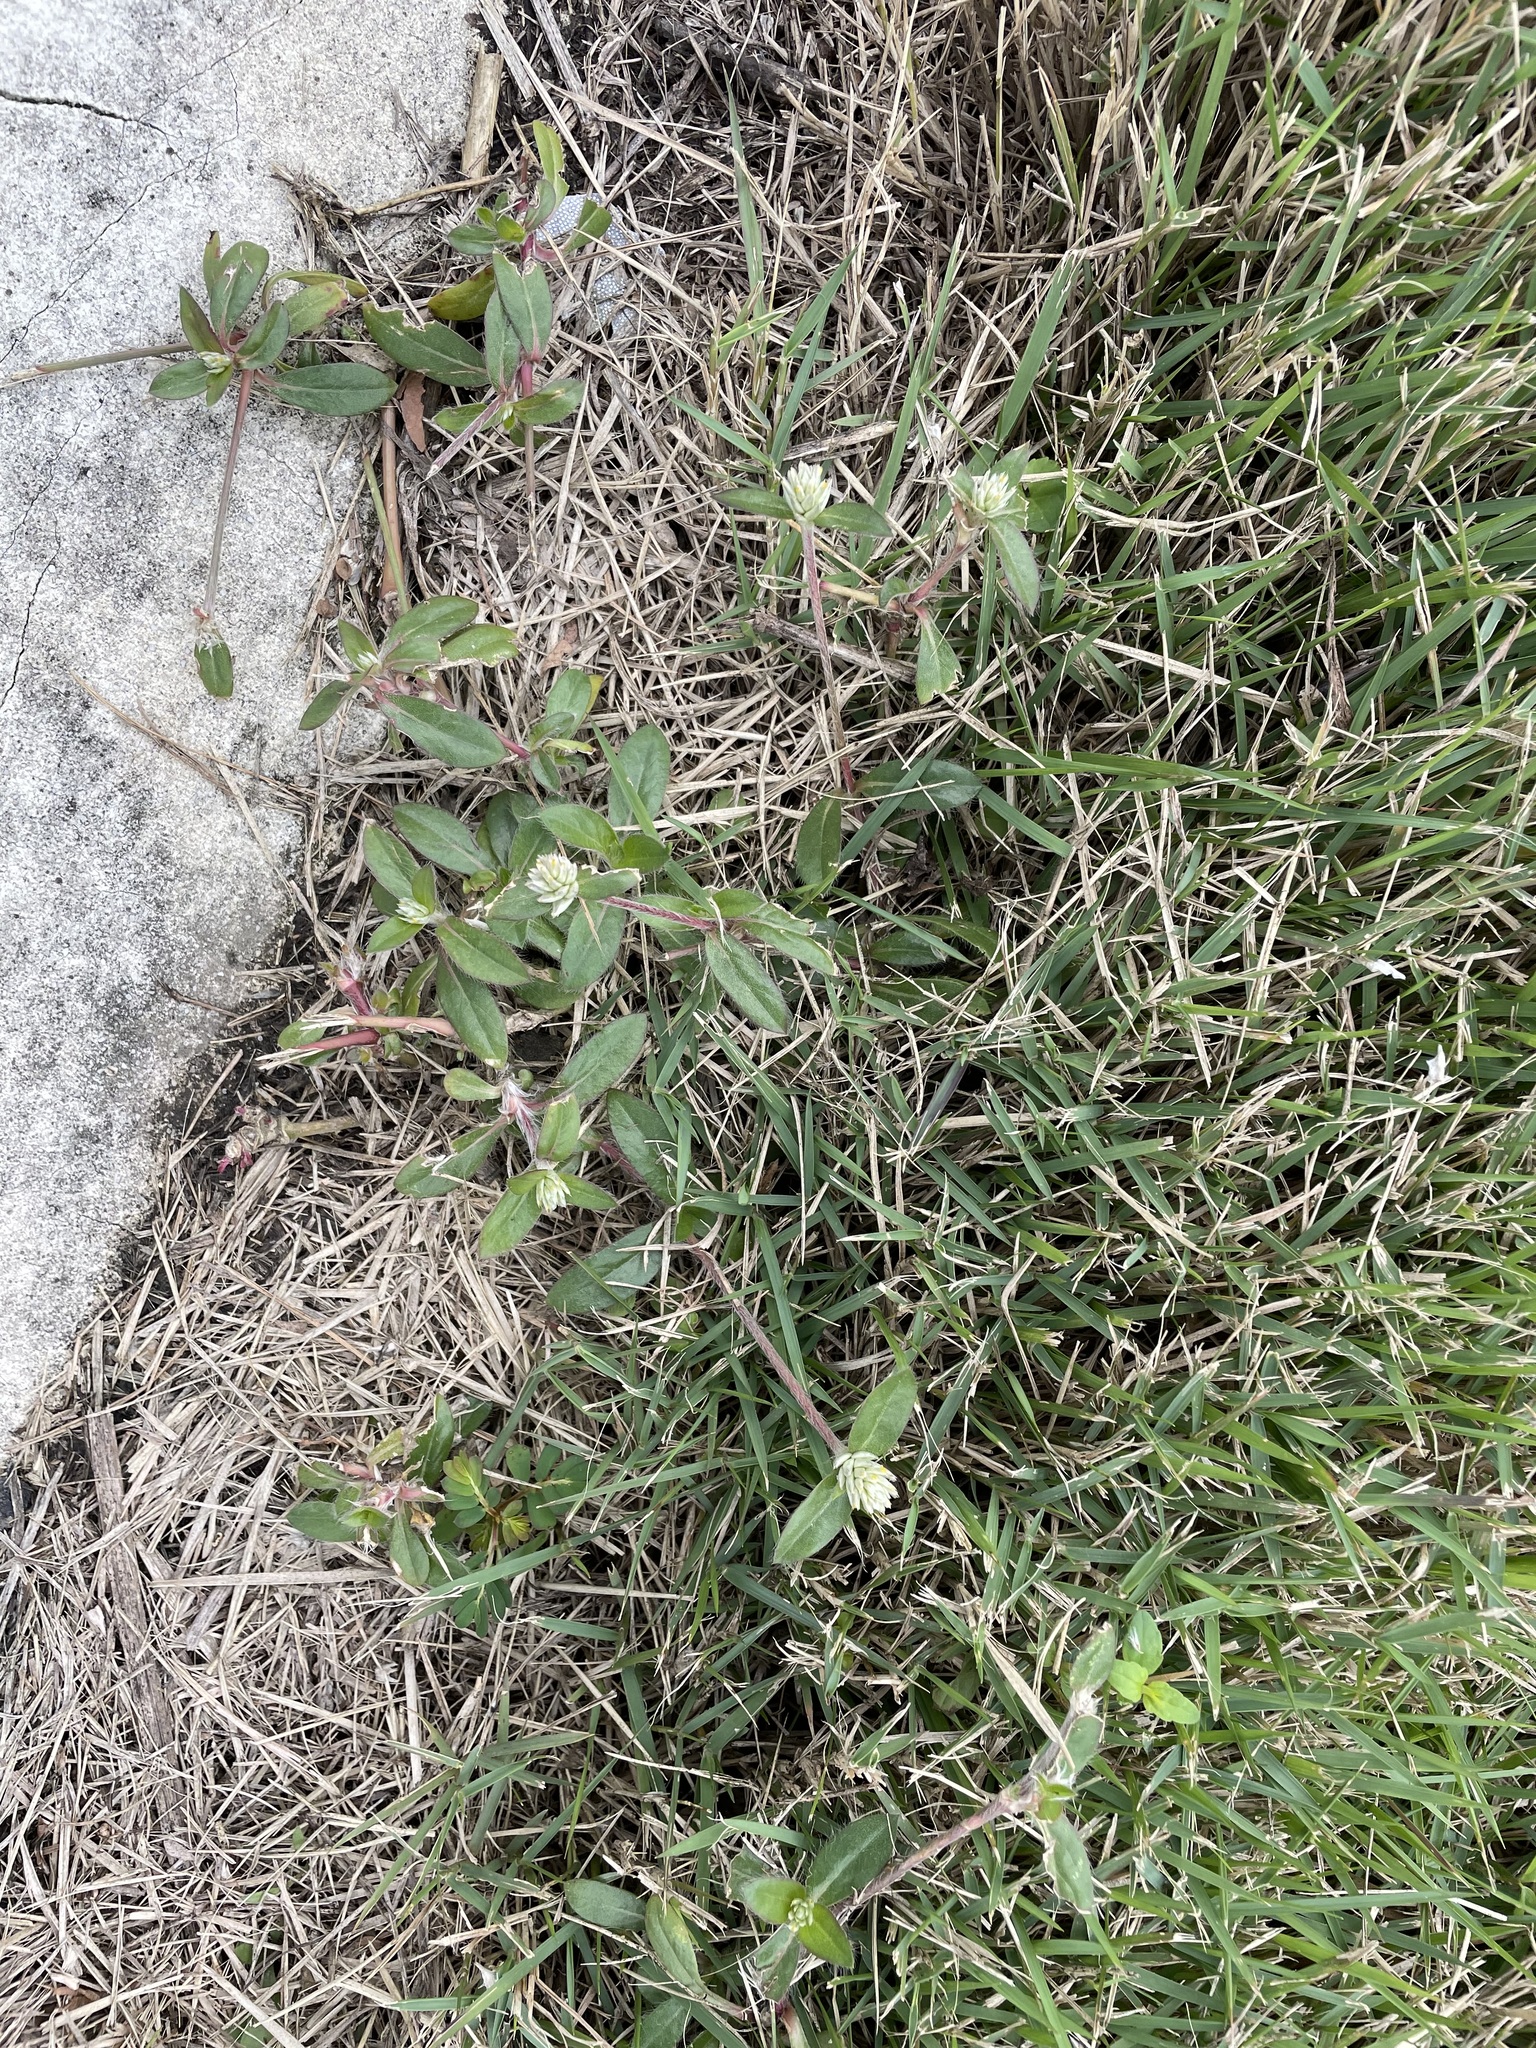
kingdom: Plantae
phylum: Tracheophyta
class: Magnoliopsida
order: Caryophyllales
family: Amaranthaceae
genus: Gomphrena
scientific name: Gomphrena celosioides
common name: Gomphrena-weed
